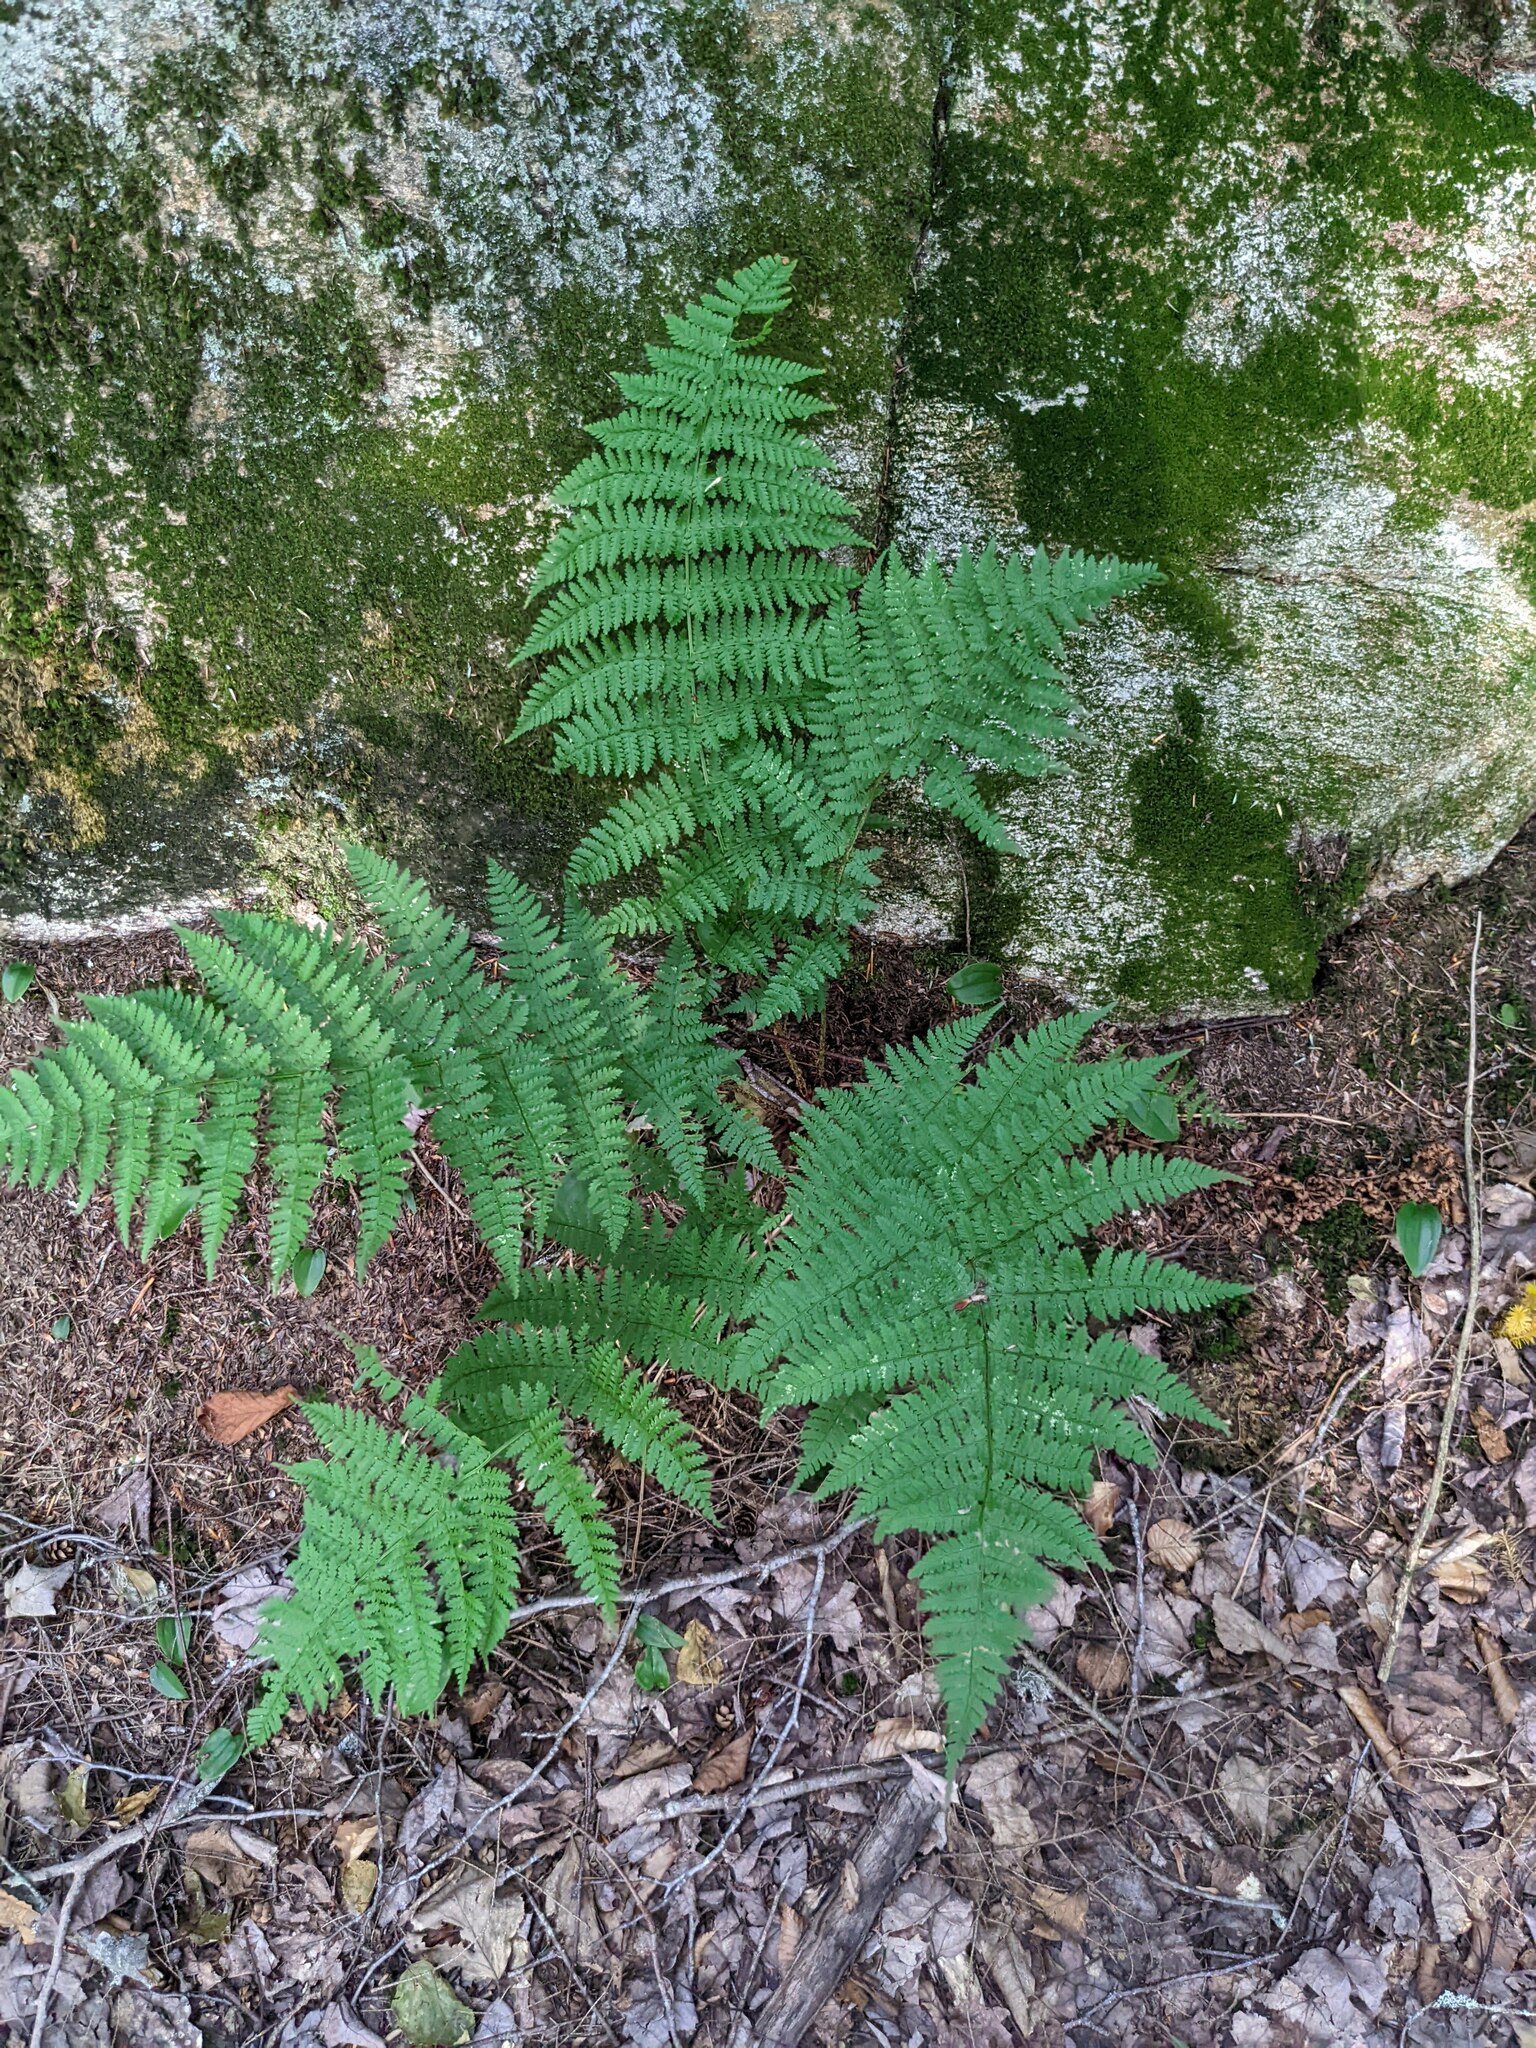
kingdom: Plantae
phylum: Tracheophyta
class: Polypodiopsida
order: Polypodiales
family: Dryopteridaceae
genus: Dryopteris
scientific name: Dryopteris intermedia
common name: Evergreen wood fern
